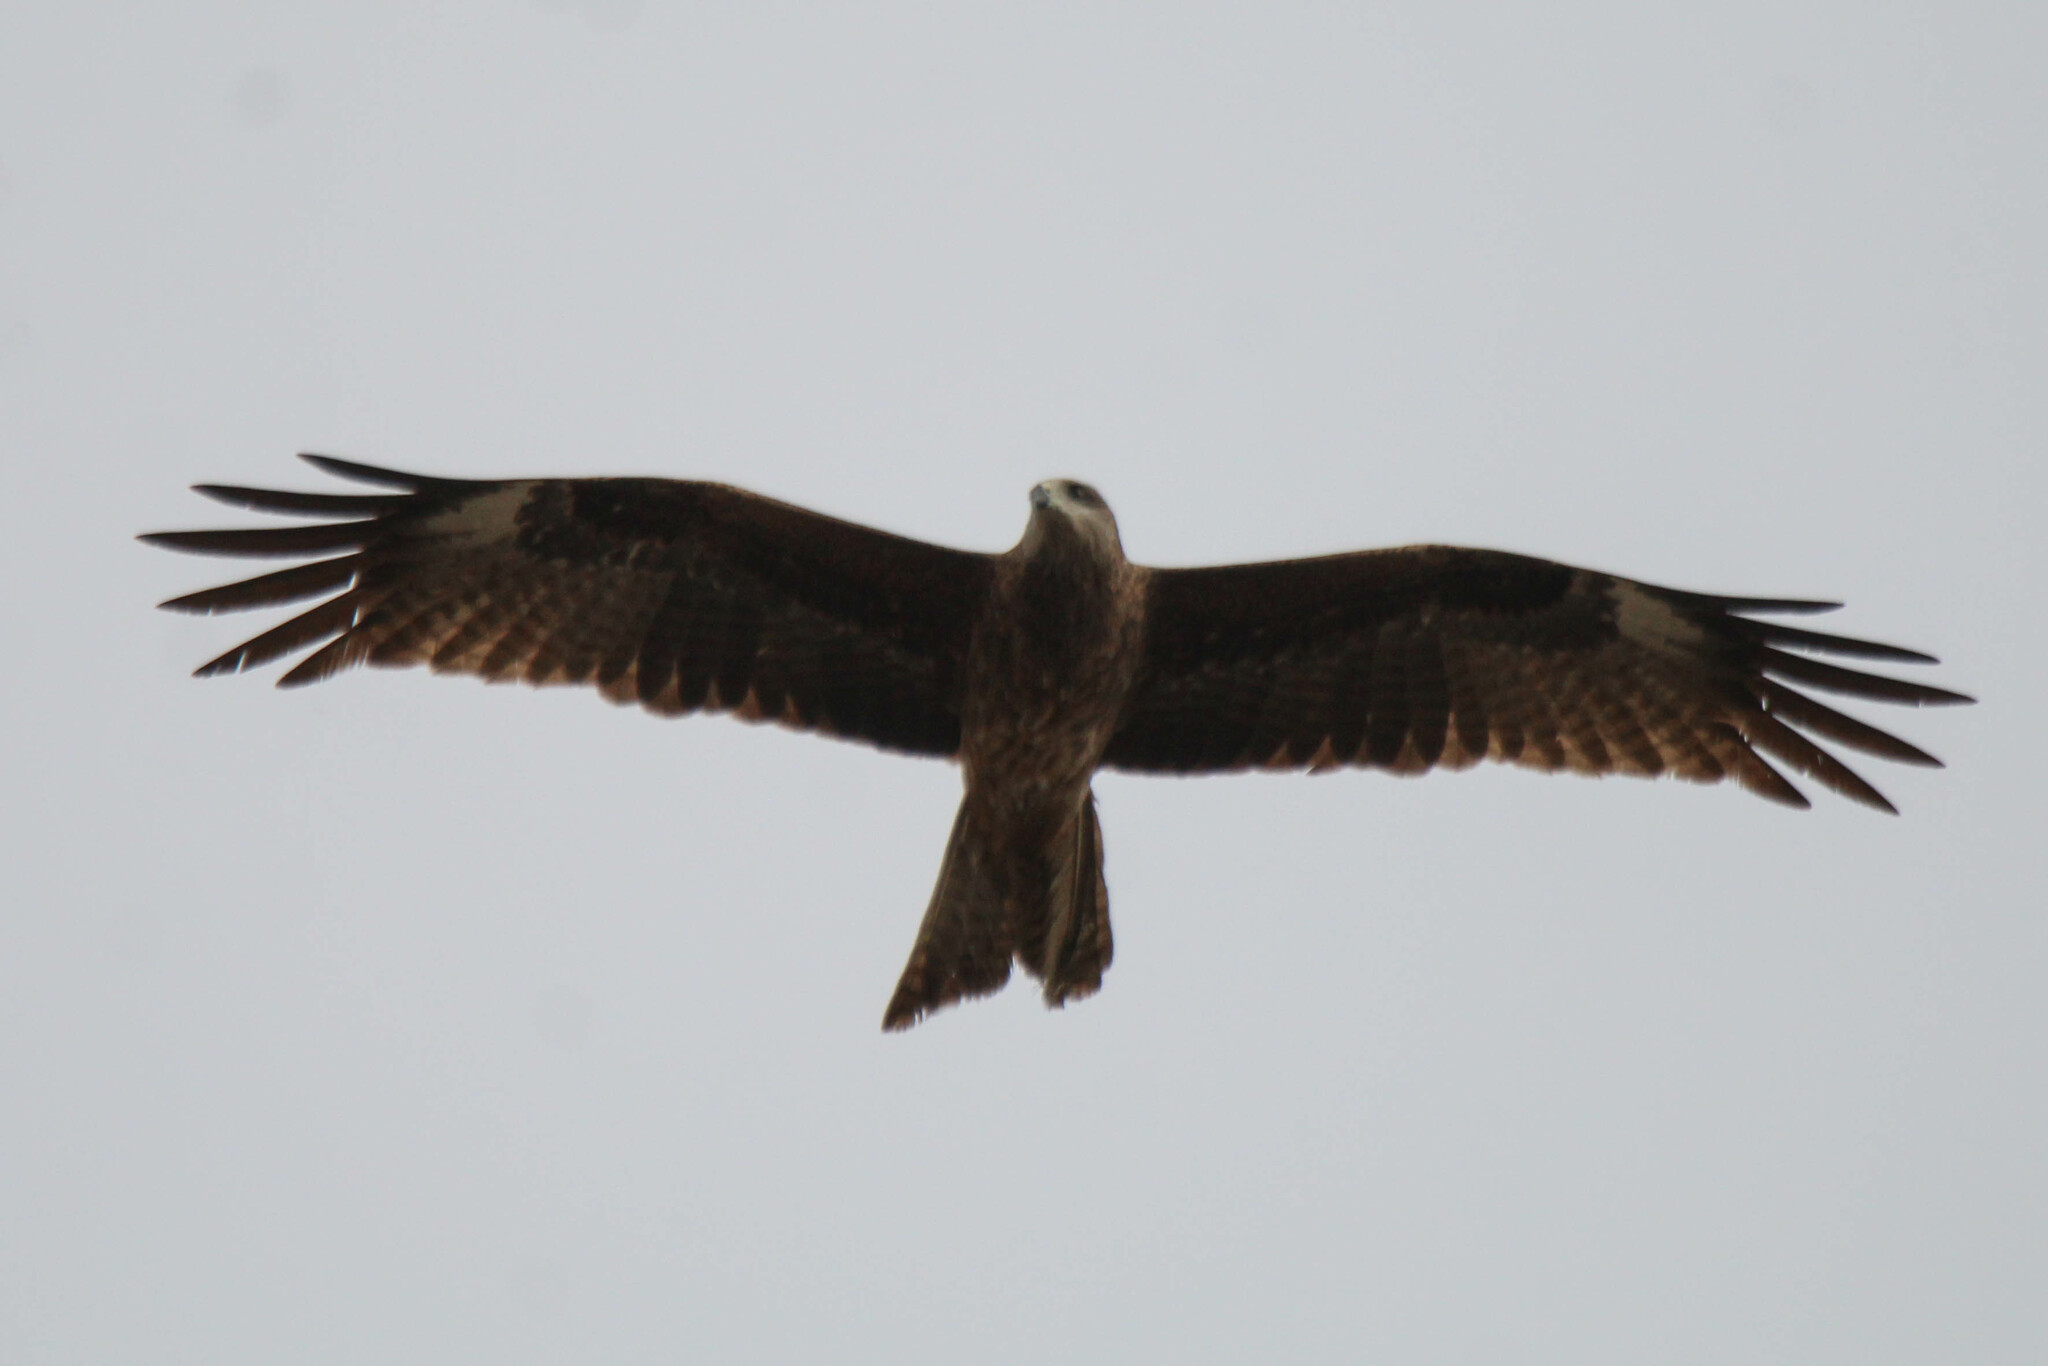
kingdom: Animalia
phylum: Chordata
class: Aves
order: Accipitriformes
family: Accipitridae
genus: Milvus
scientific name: Milvus migrans
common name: Black kite
